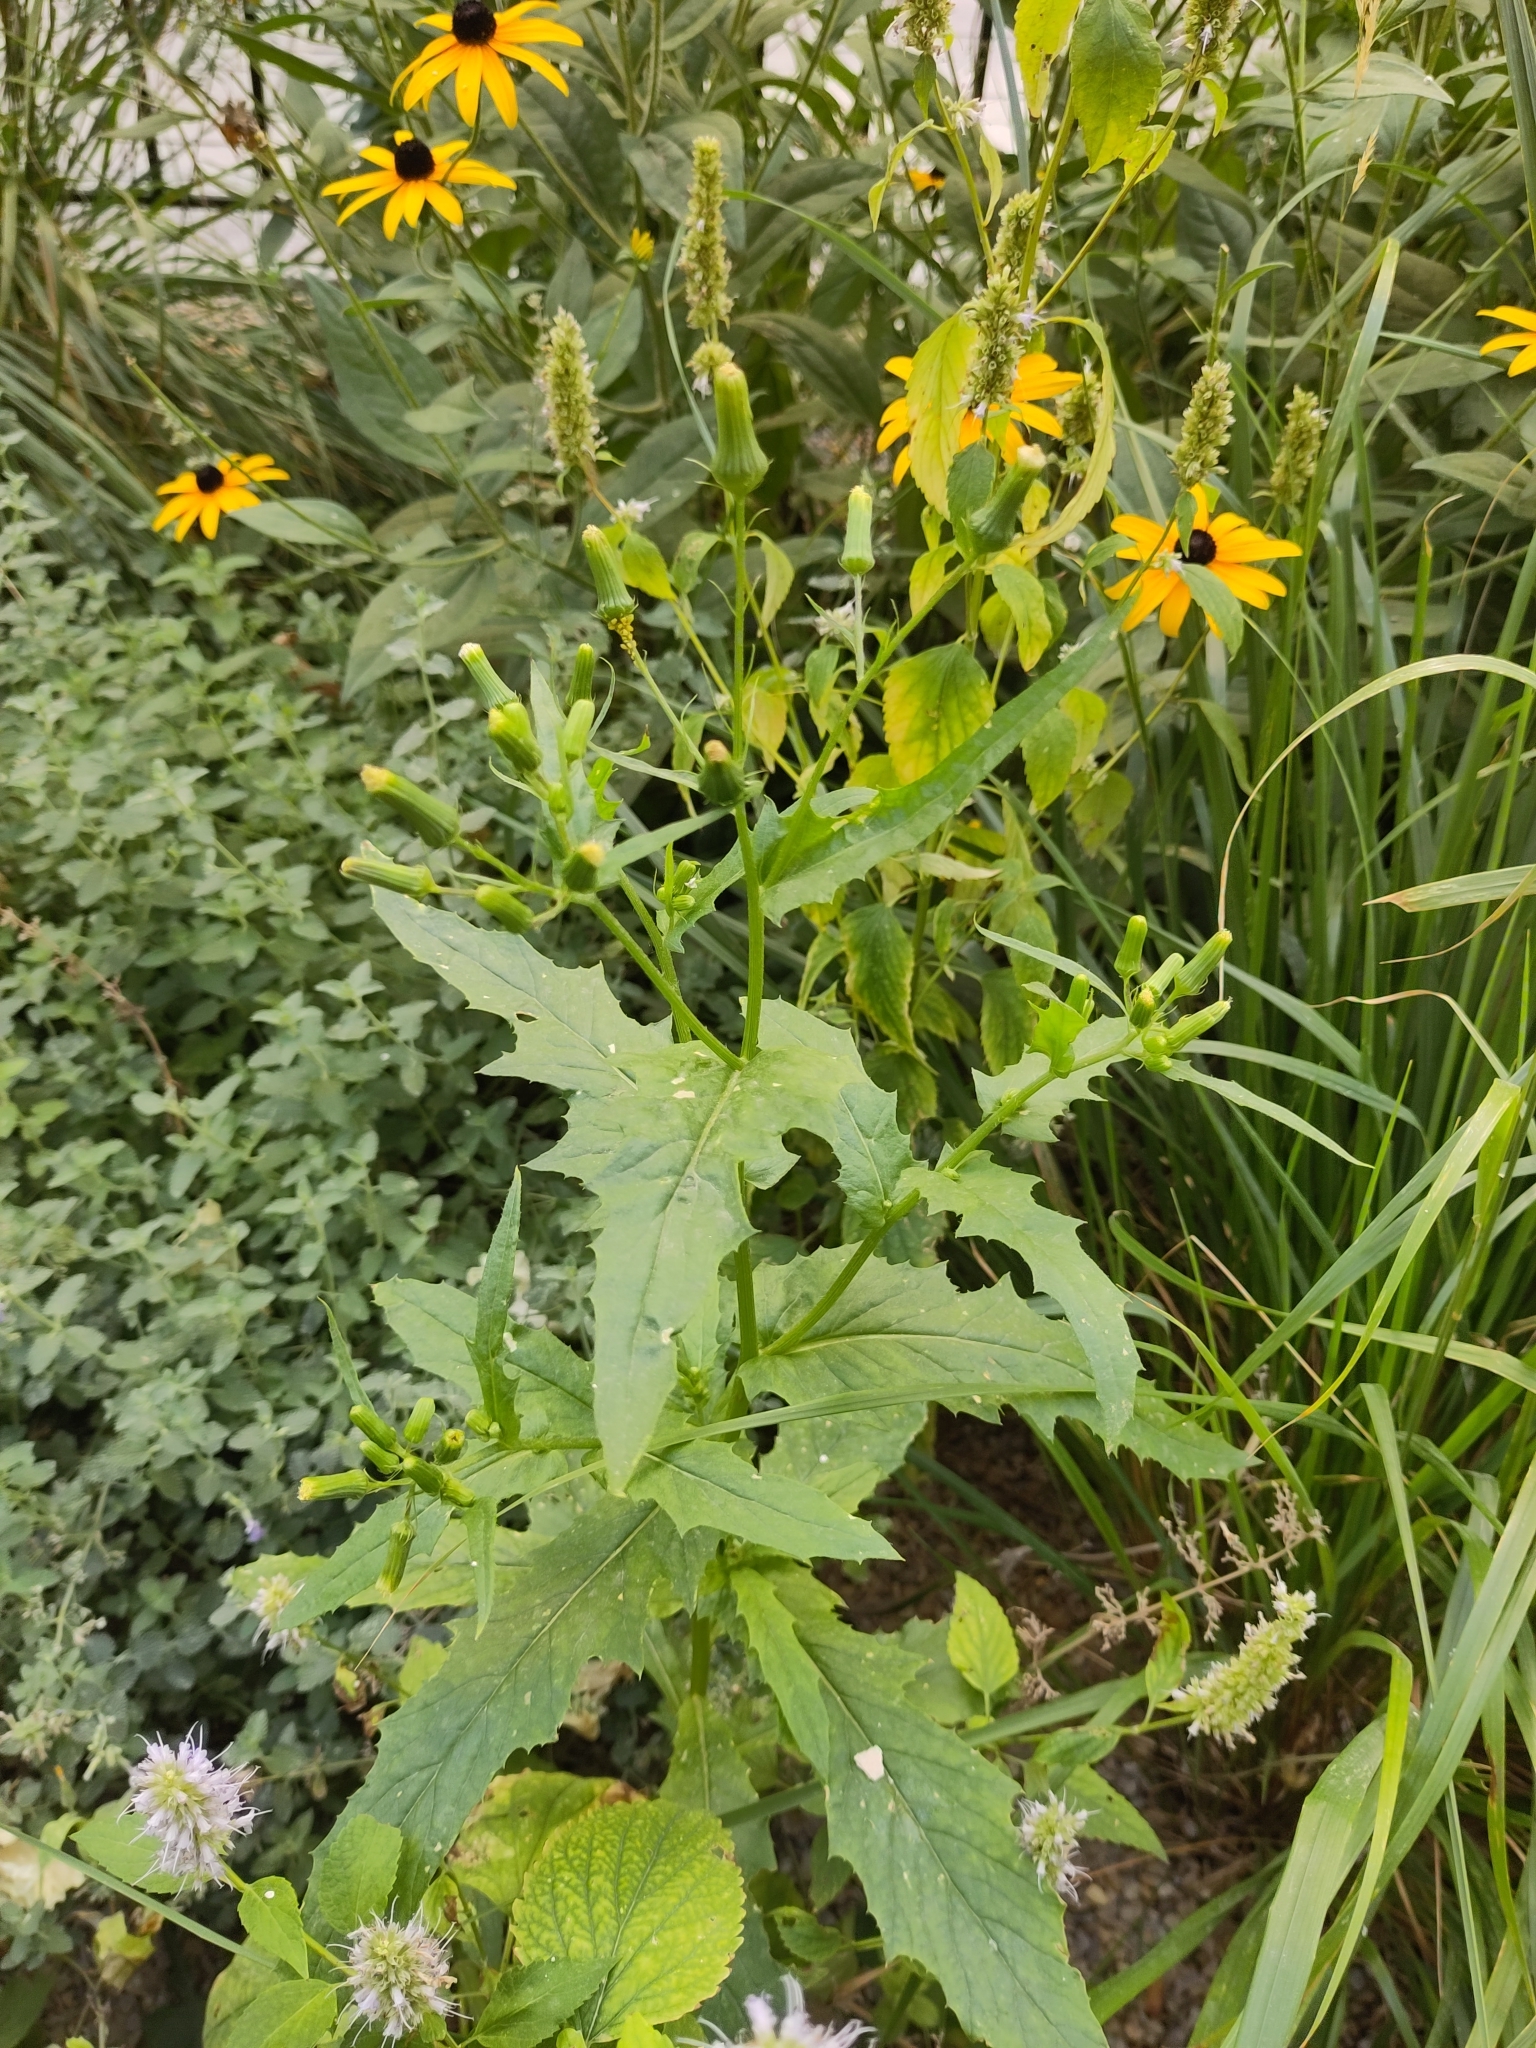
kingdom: Plantae
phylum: Tracheophyta
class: Magnoliopsida
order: Asterales
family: Asteraceae
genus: Erechtites
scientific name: Erechtites hieraciifolius
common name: American burnweed
